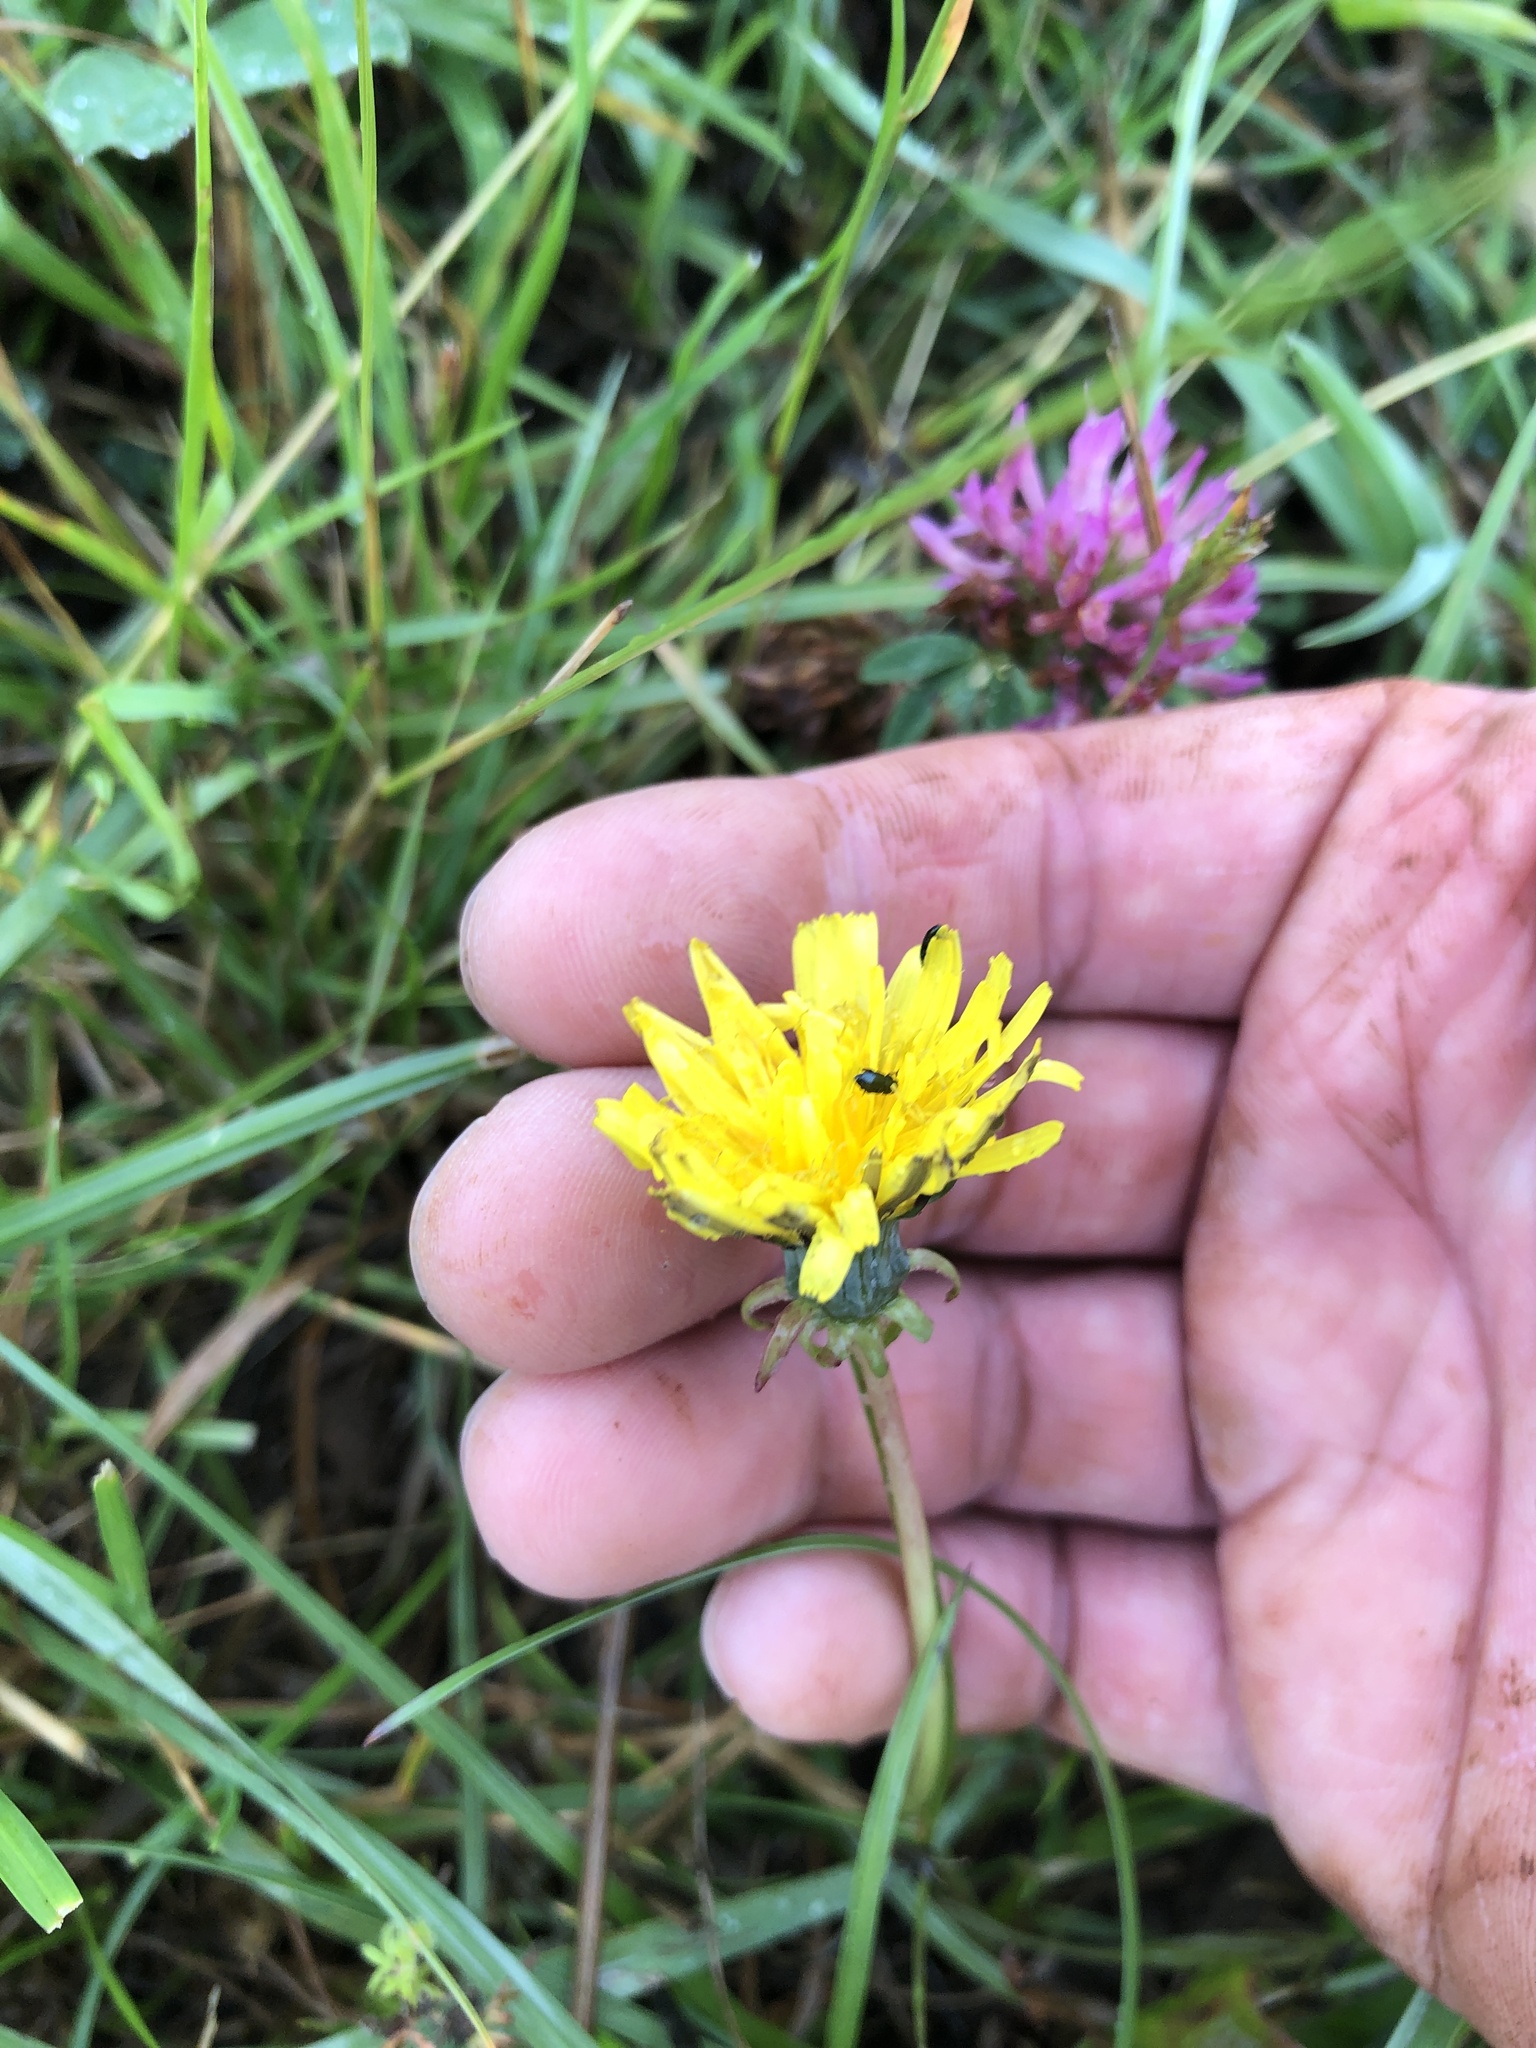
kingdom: Plantae
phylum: Tracheophyta
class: Magnoliopsida
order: Asterales
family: Asteraceae
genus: Taraxacum
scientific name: Taraxacum officinale
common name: Common dandelion
